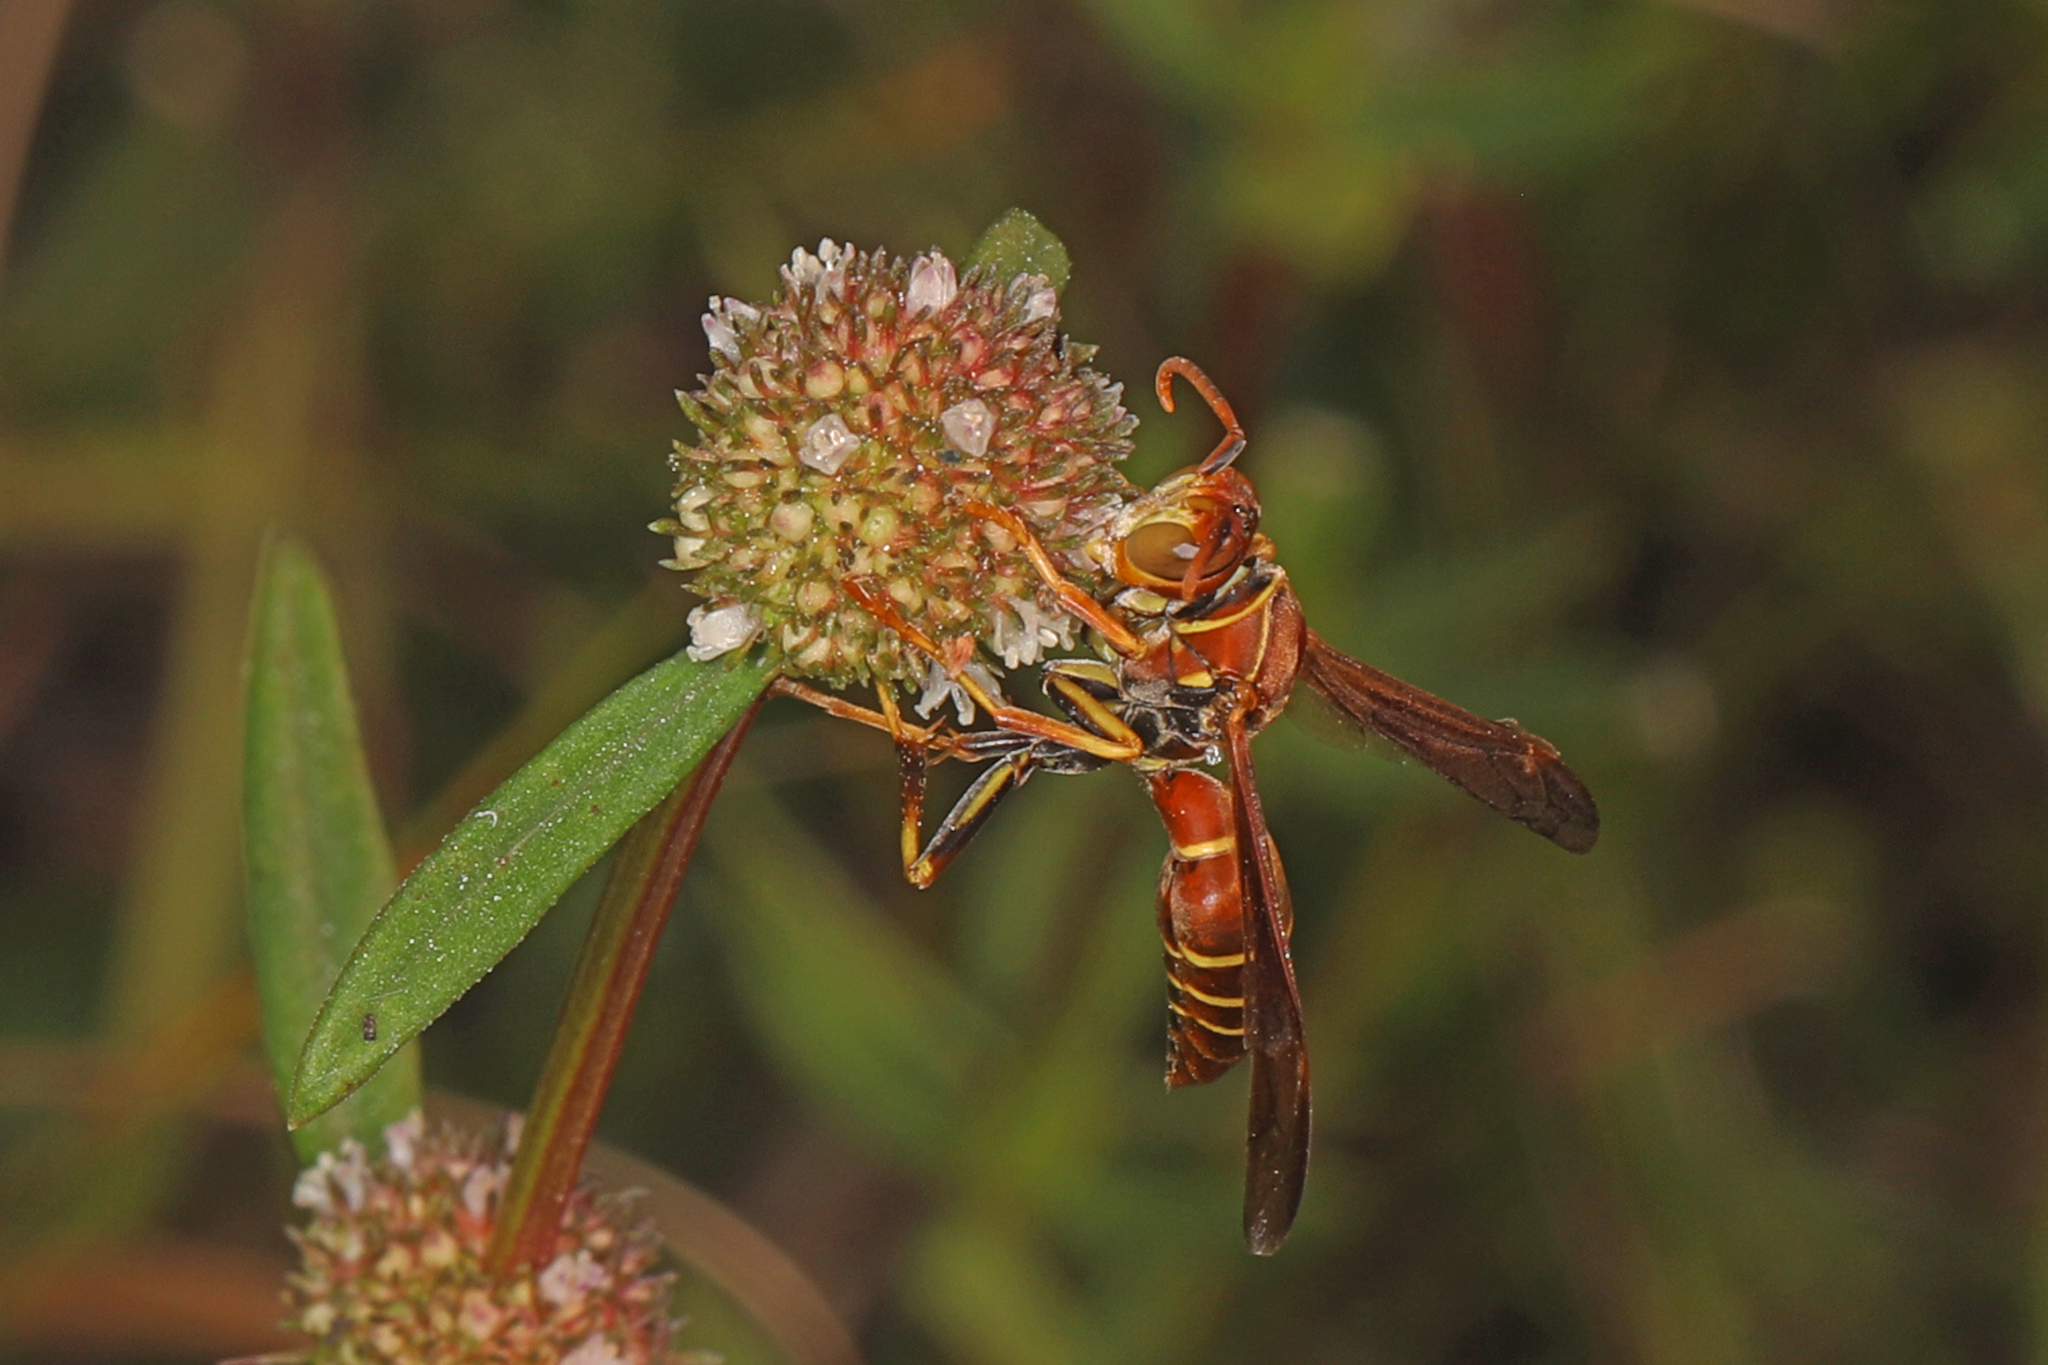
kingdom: Animalia
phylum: Arthropoda
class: Insecta
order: Hymenoptera
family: Eumenidae
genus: Polistes
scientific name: Polistes dorsalis
